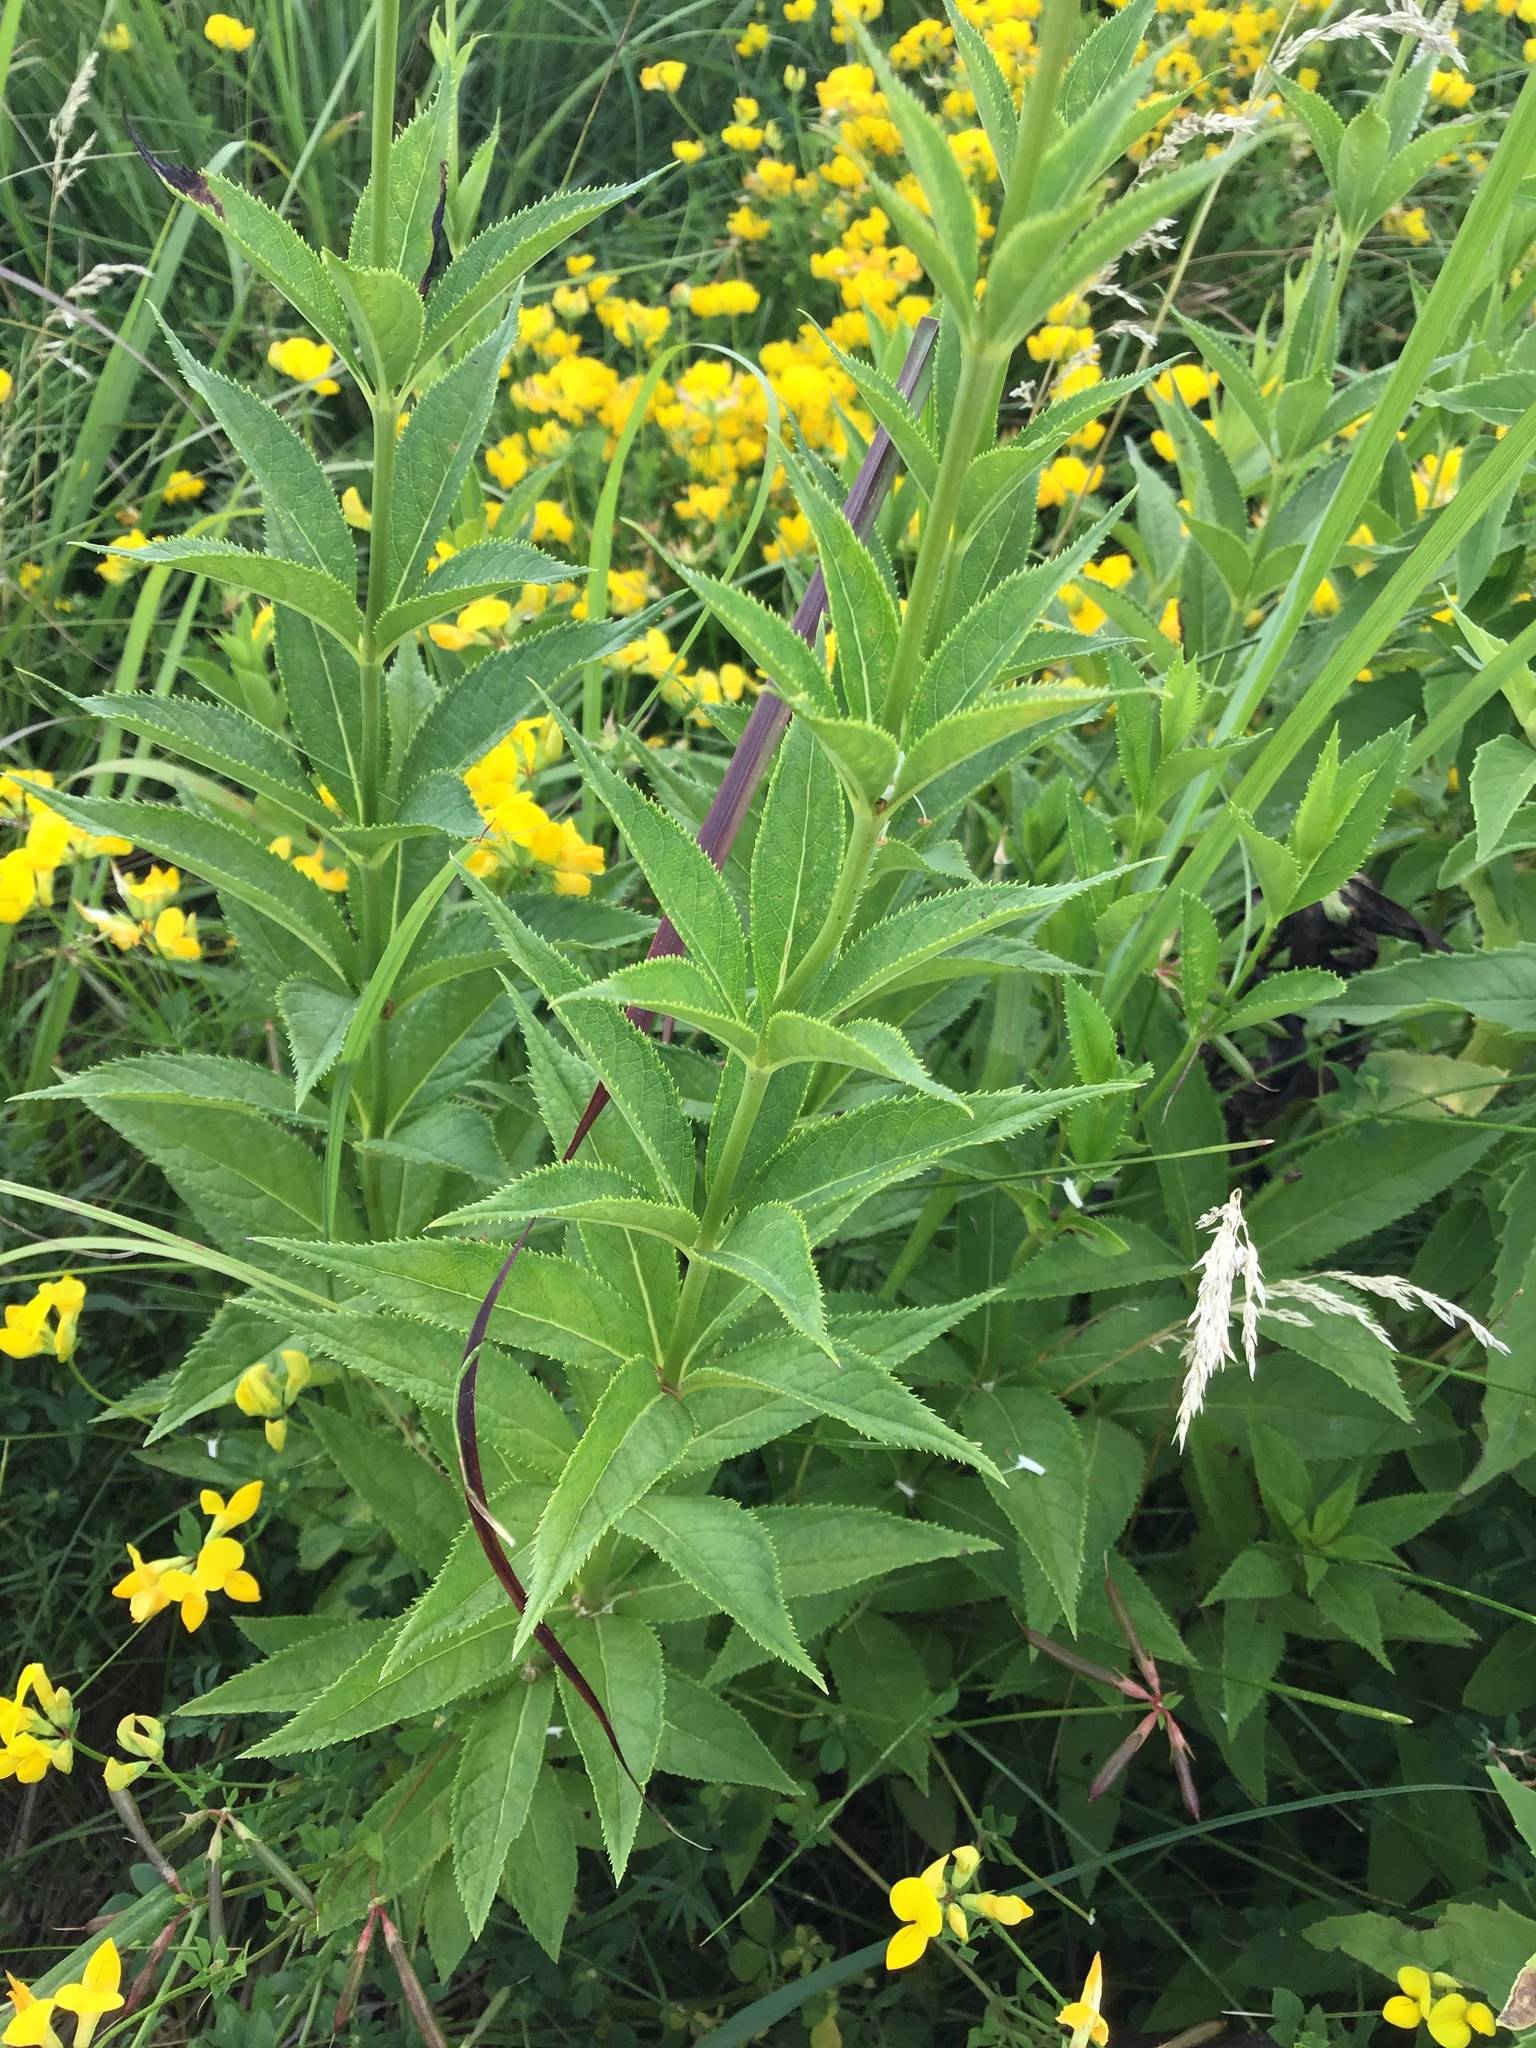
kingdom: Plantae
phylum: Tracheophyta
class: Magnoliopsida
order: Lamiales
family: Plantaginaceae
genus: Veronicastrum
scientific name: Veronicastrum virginicum
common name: Blackroot
